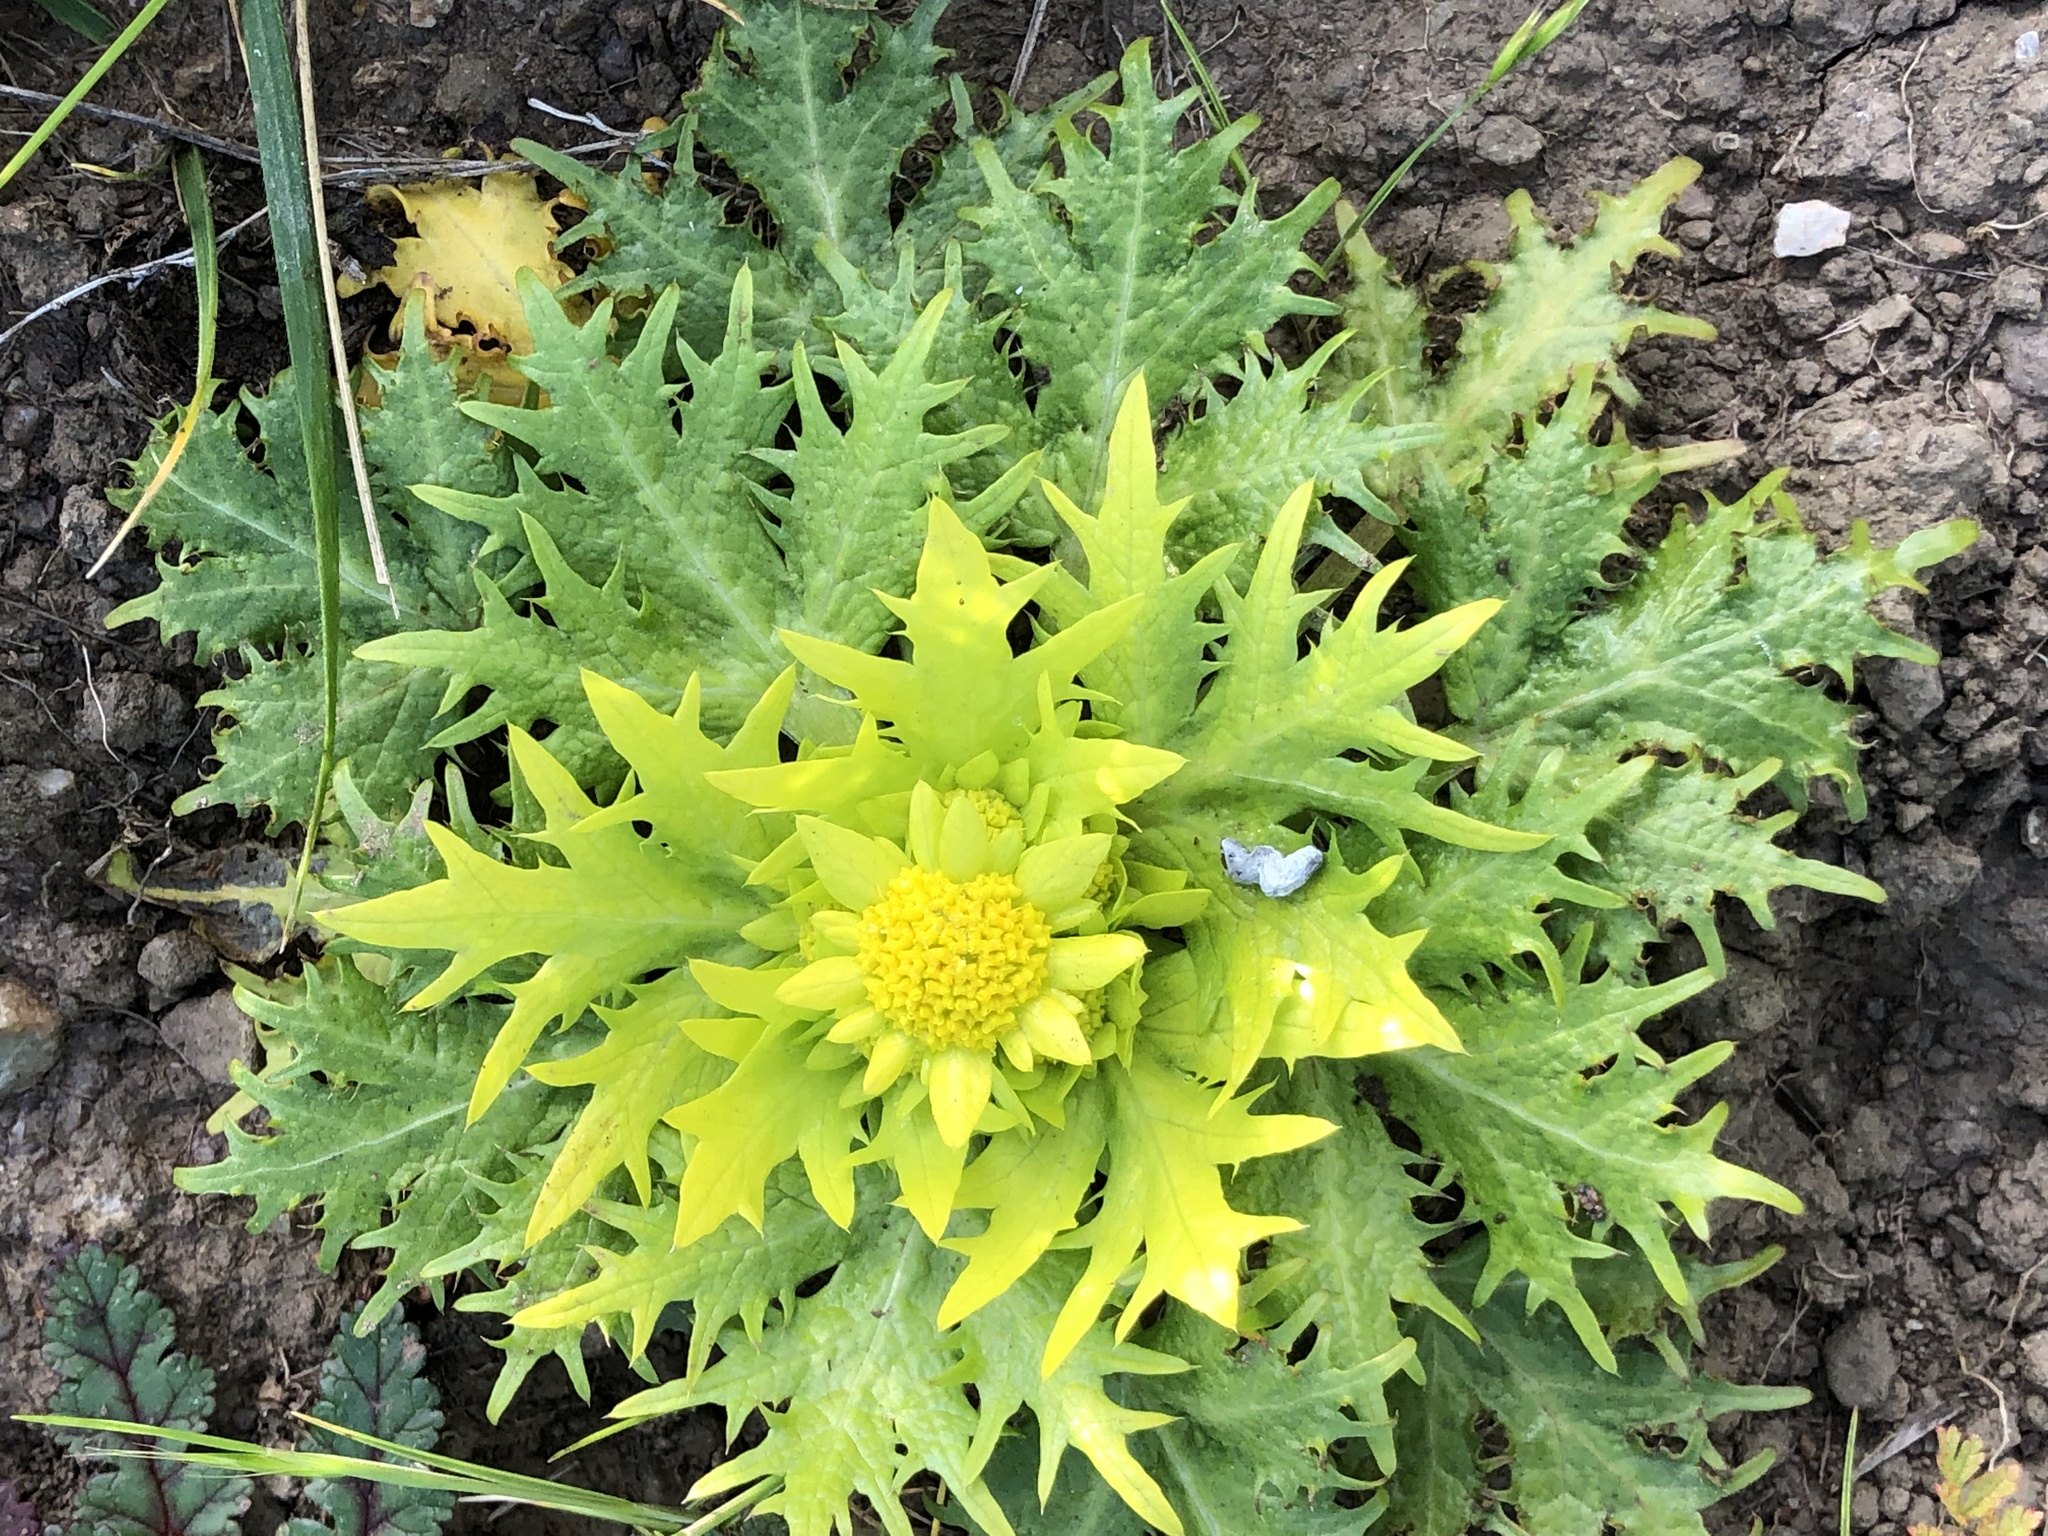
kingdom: Plantae
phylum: Tracheophyta
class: Magnoliopsida
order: Apiales
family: Apiaceae
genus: Sanicula
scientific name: Sanicula arctopoides
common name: Footsteps-of-spring
